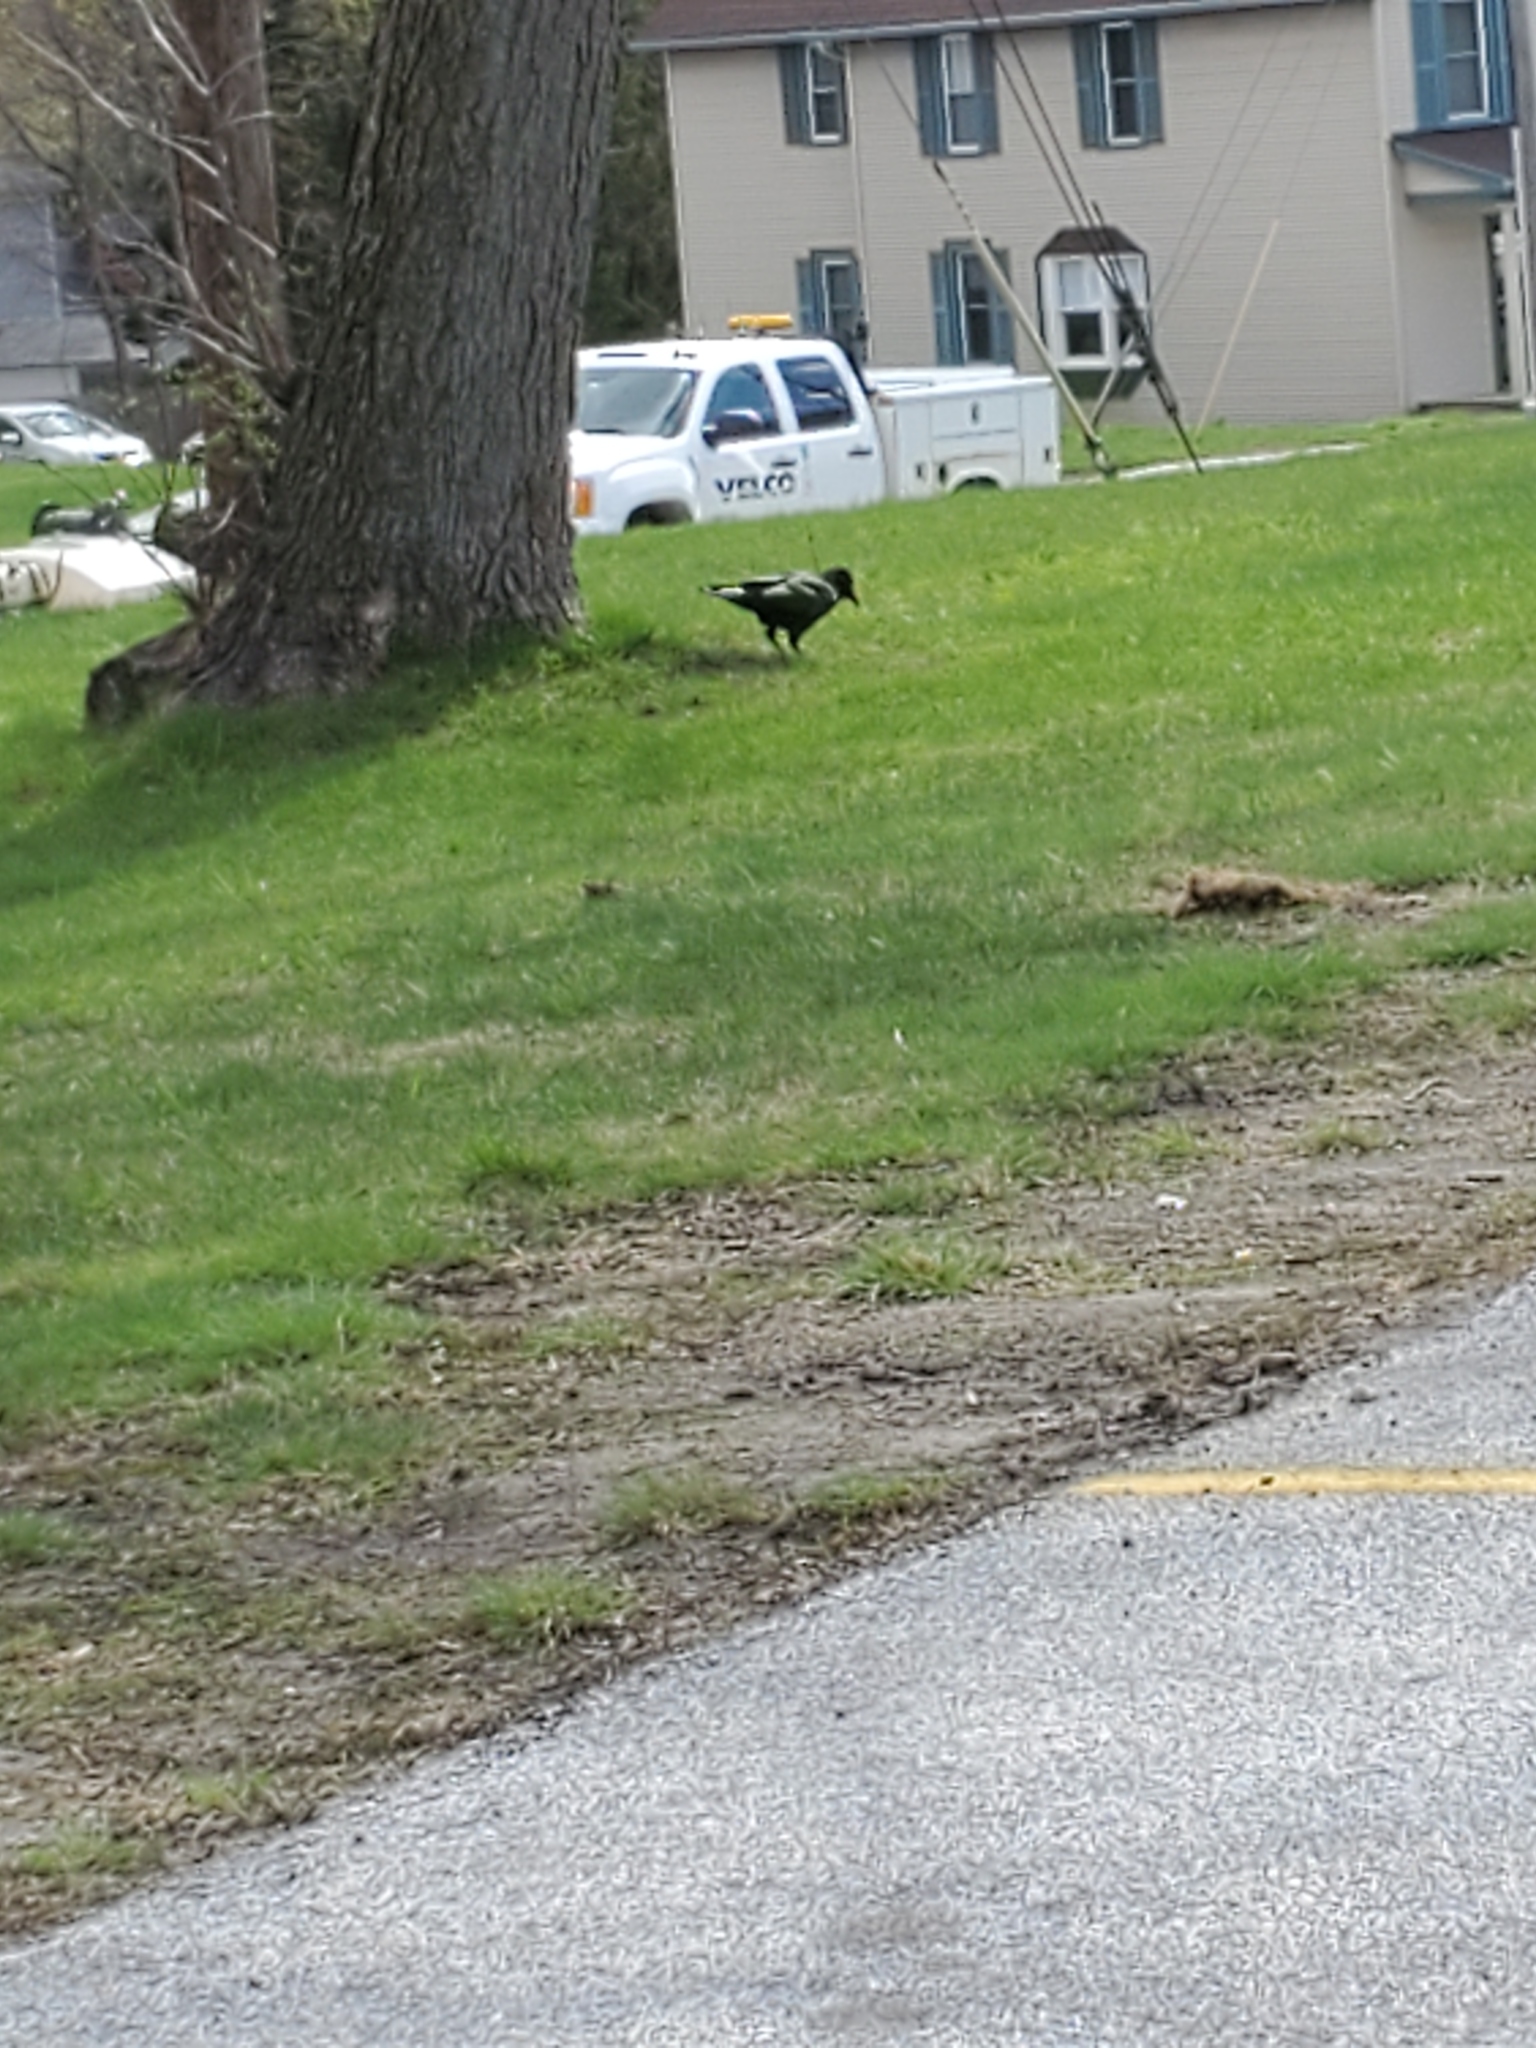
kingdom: Animalia
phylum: Chordata
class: Aves
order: Passeriformes
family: Corvidae
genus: Corvus
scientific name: Corvus brachyrhynchos
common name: American crow
